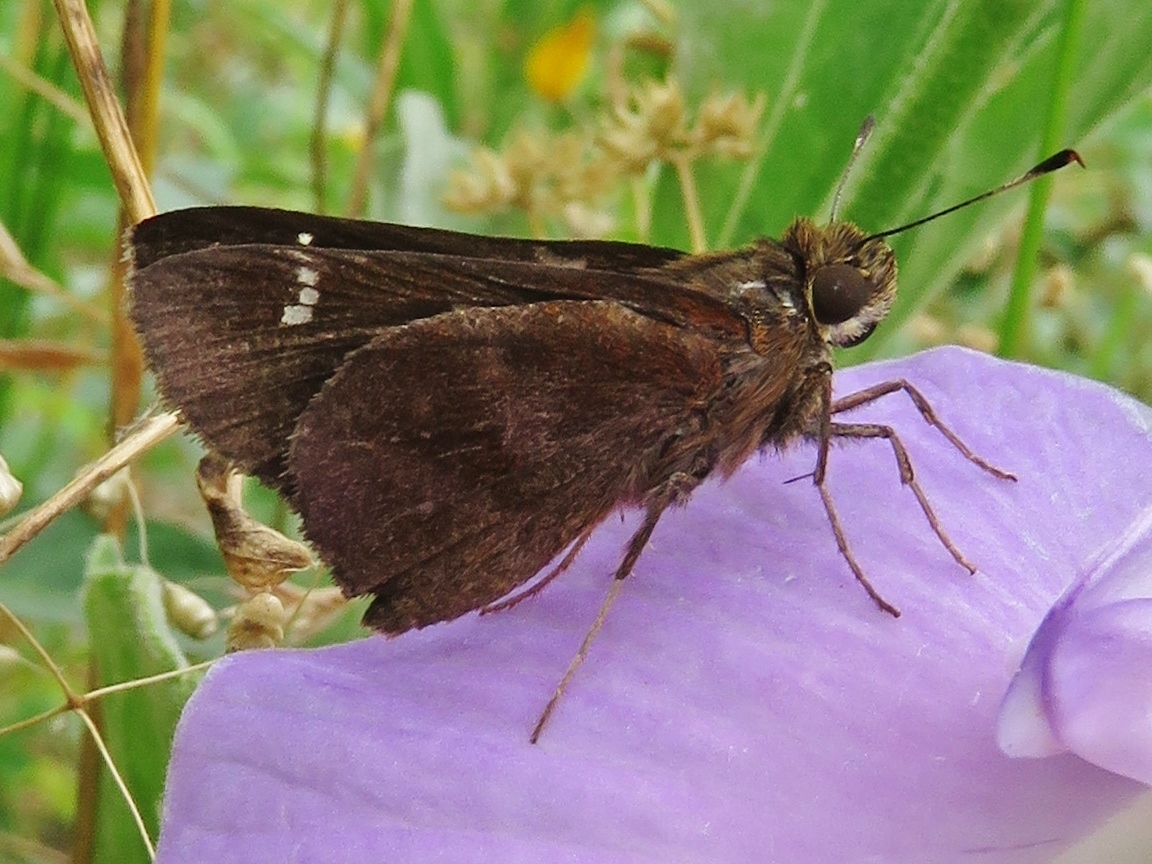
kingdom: Animalia
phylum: Arthropoda
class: Insecta
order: Lepidoptera
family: Hesperiidae
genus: Lerema
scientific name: Lerema accius
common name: Clouded skipper
